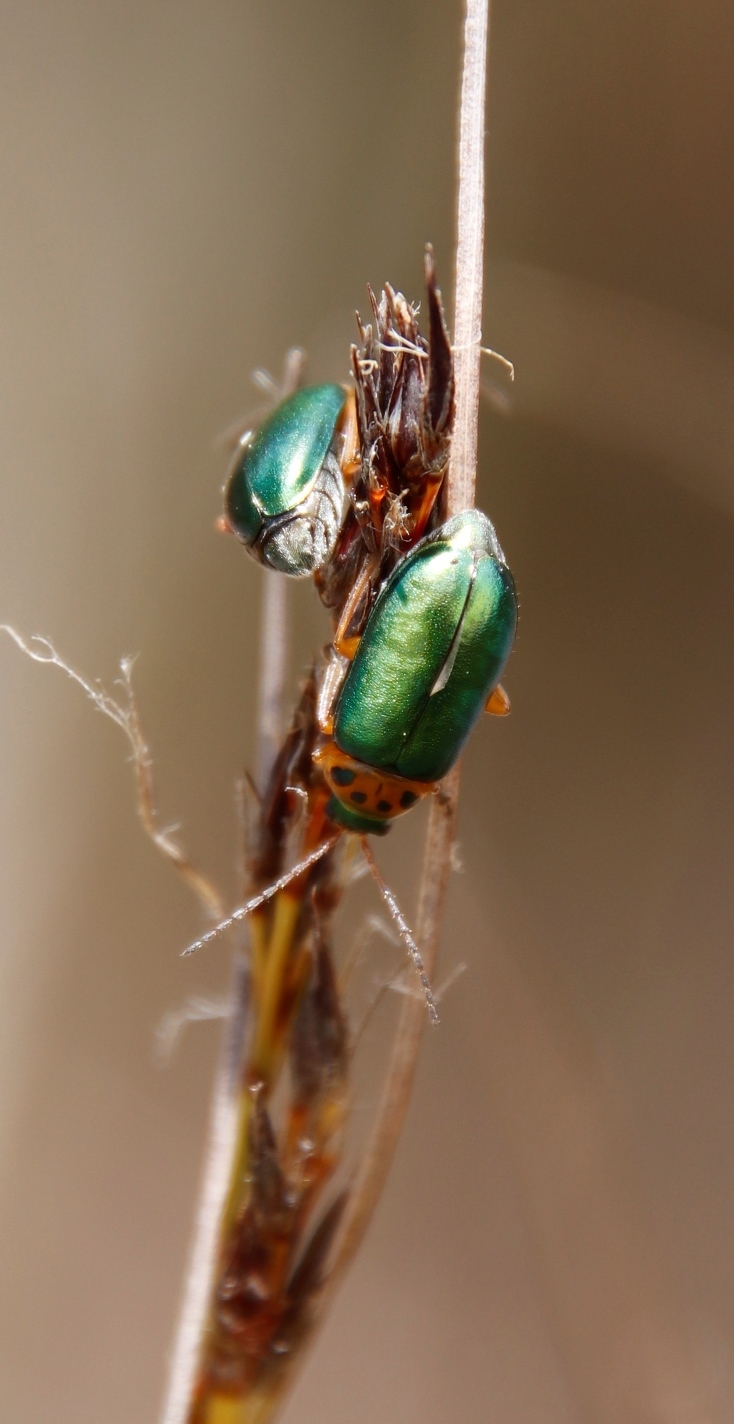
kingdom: Animalia
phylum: Arthropoda
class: Insecta
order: Coleoptera
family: Chrysomelidae
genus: Palaeophylia
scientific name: Palaeophylia
